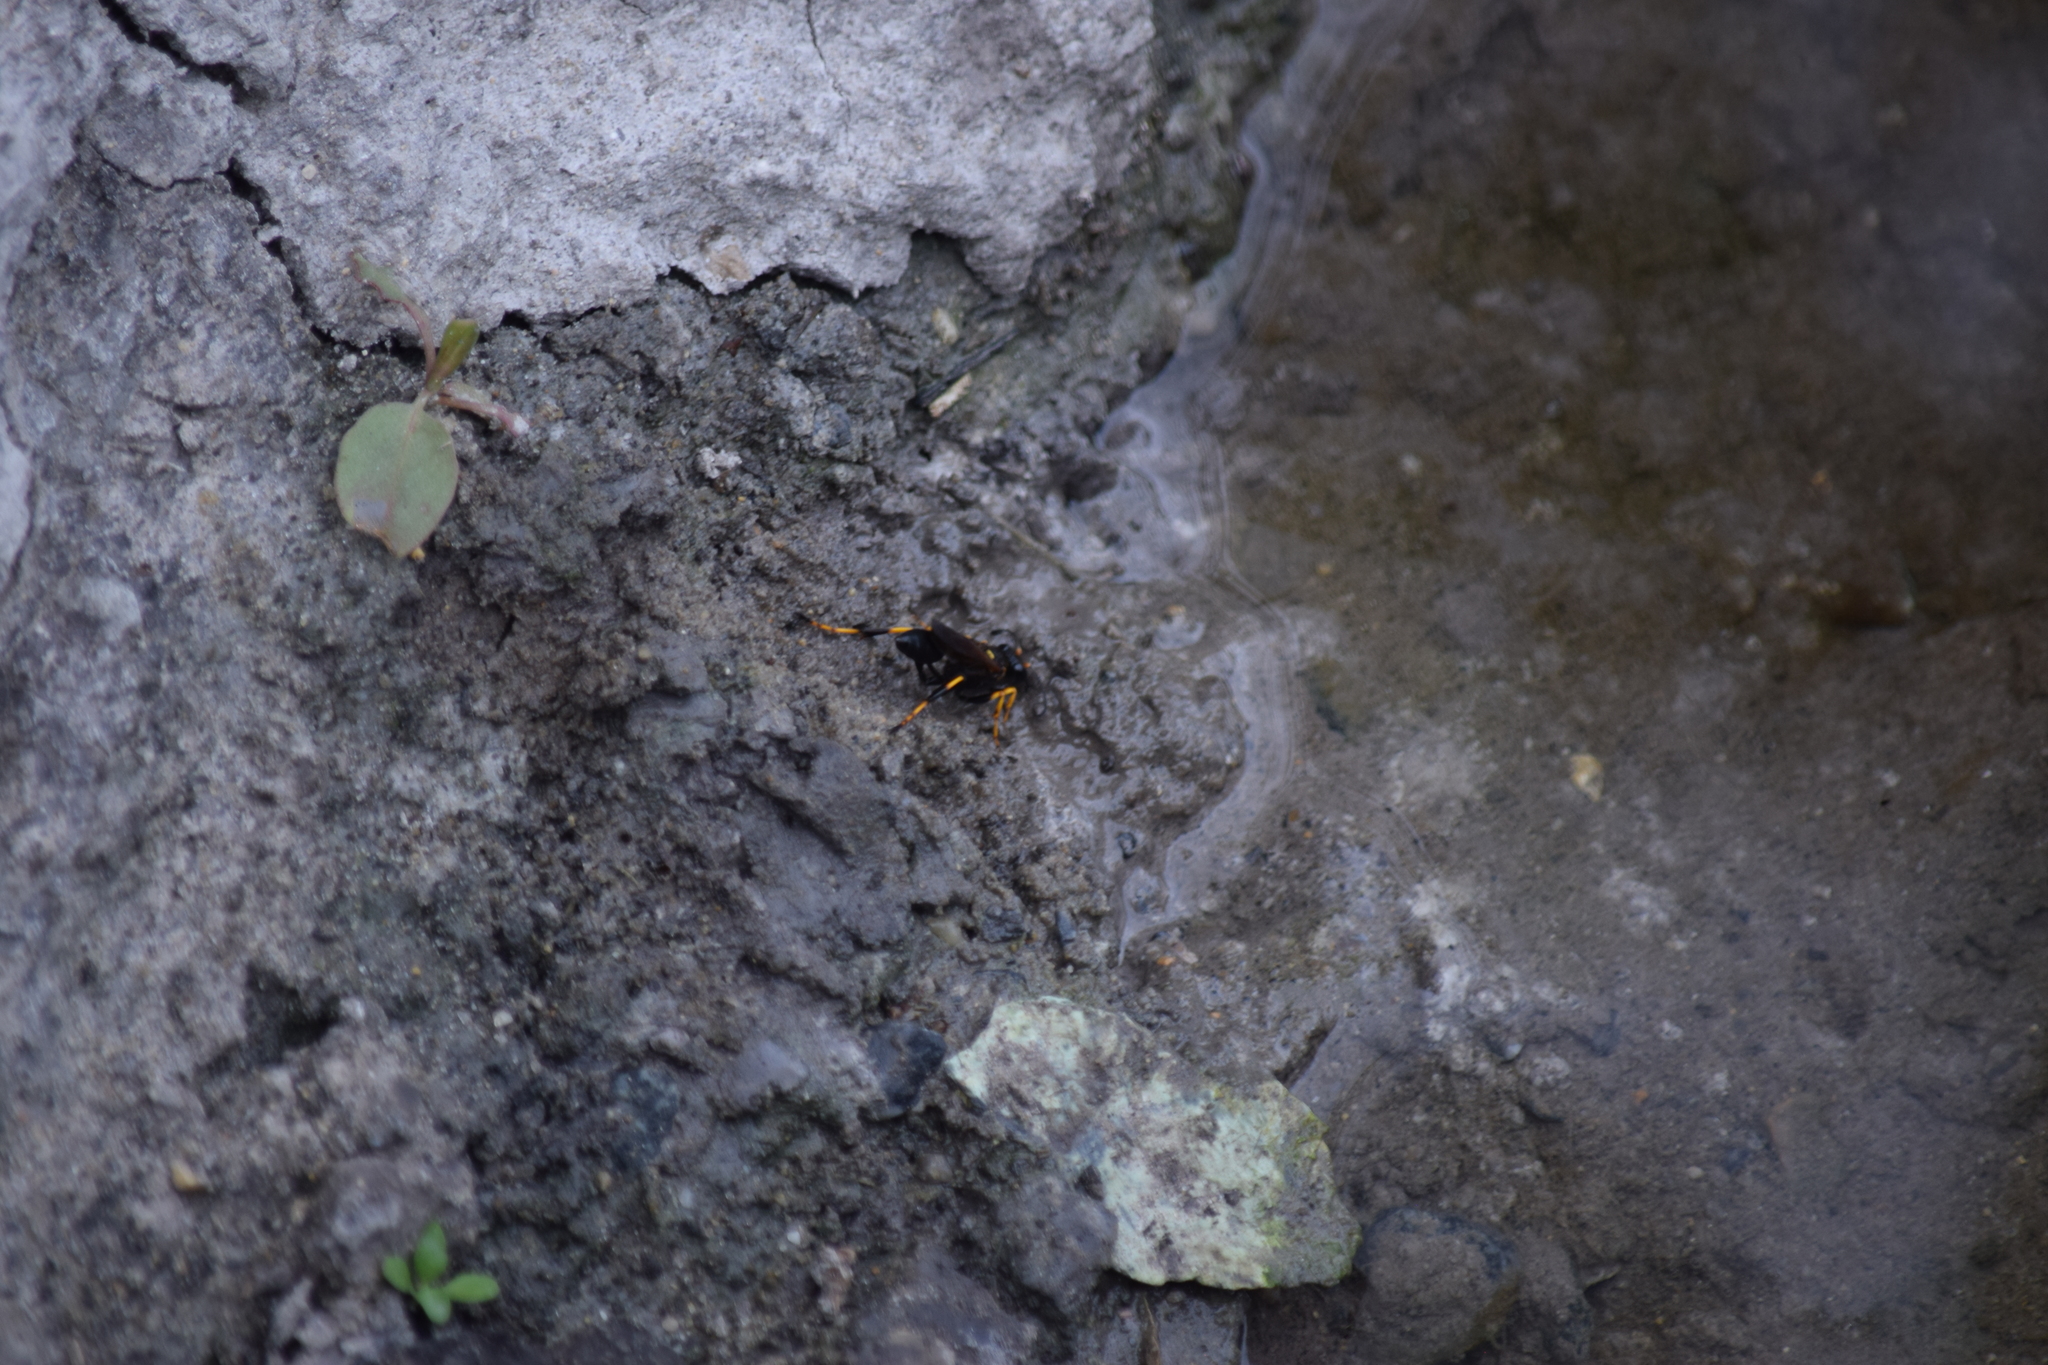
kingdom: Animalia
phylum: Arthropoda
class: Insecta
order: Hymenoptera
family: Sphecidae
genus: Sceliphron
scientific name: Sceliphron caementarium
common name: Mud dauber
